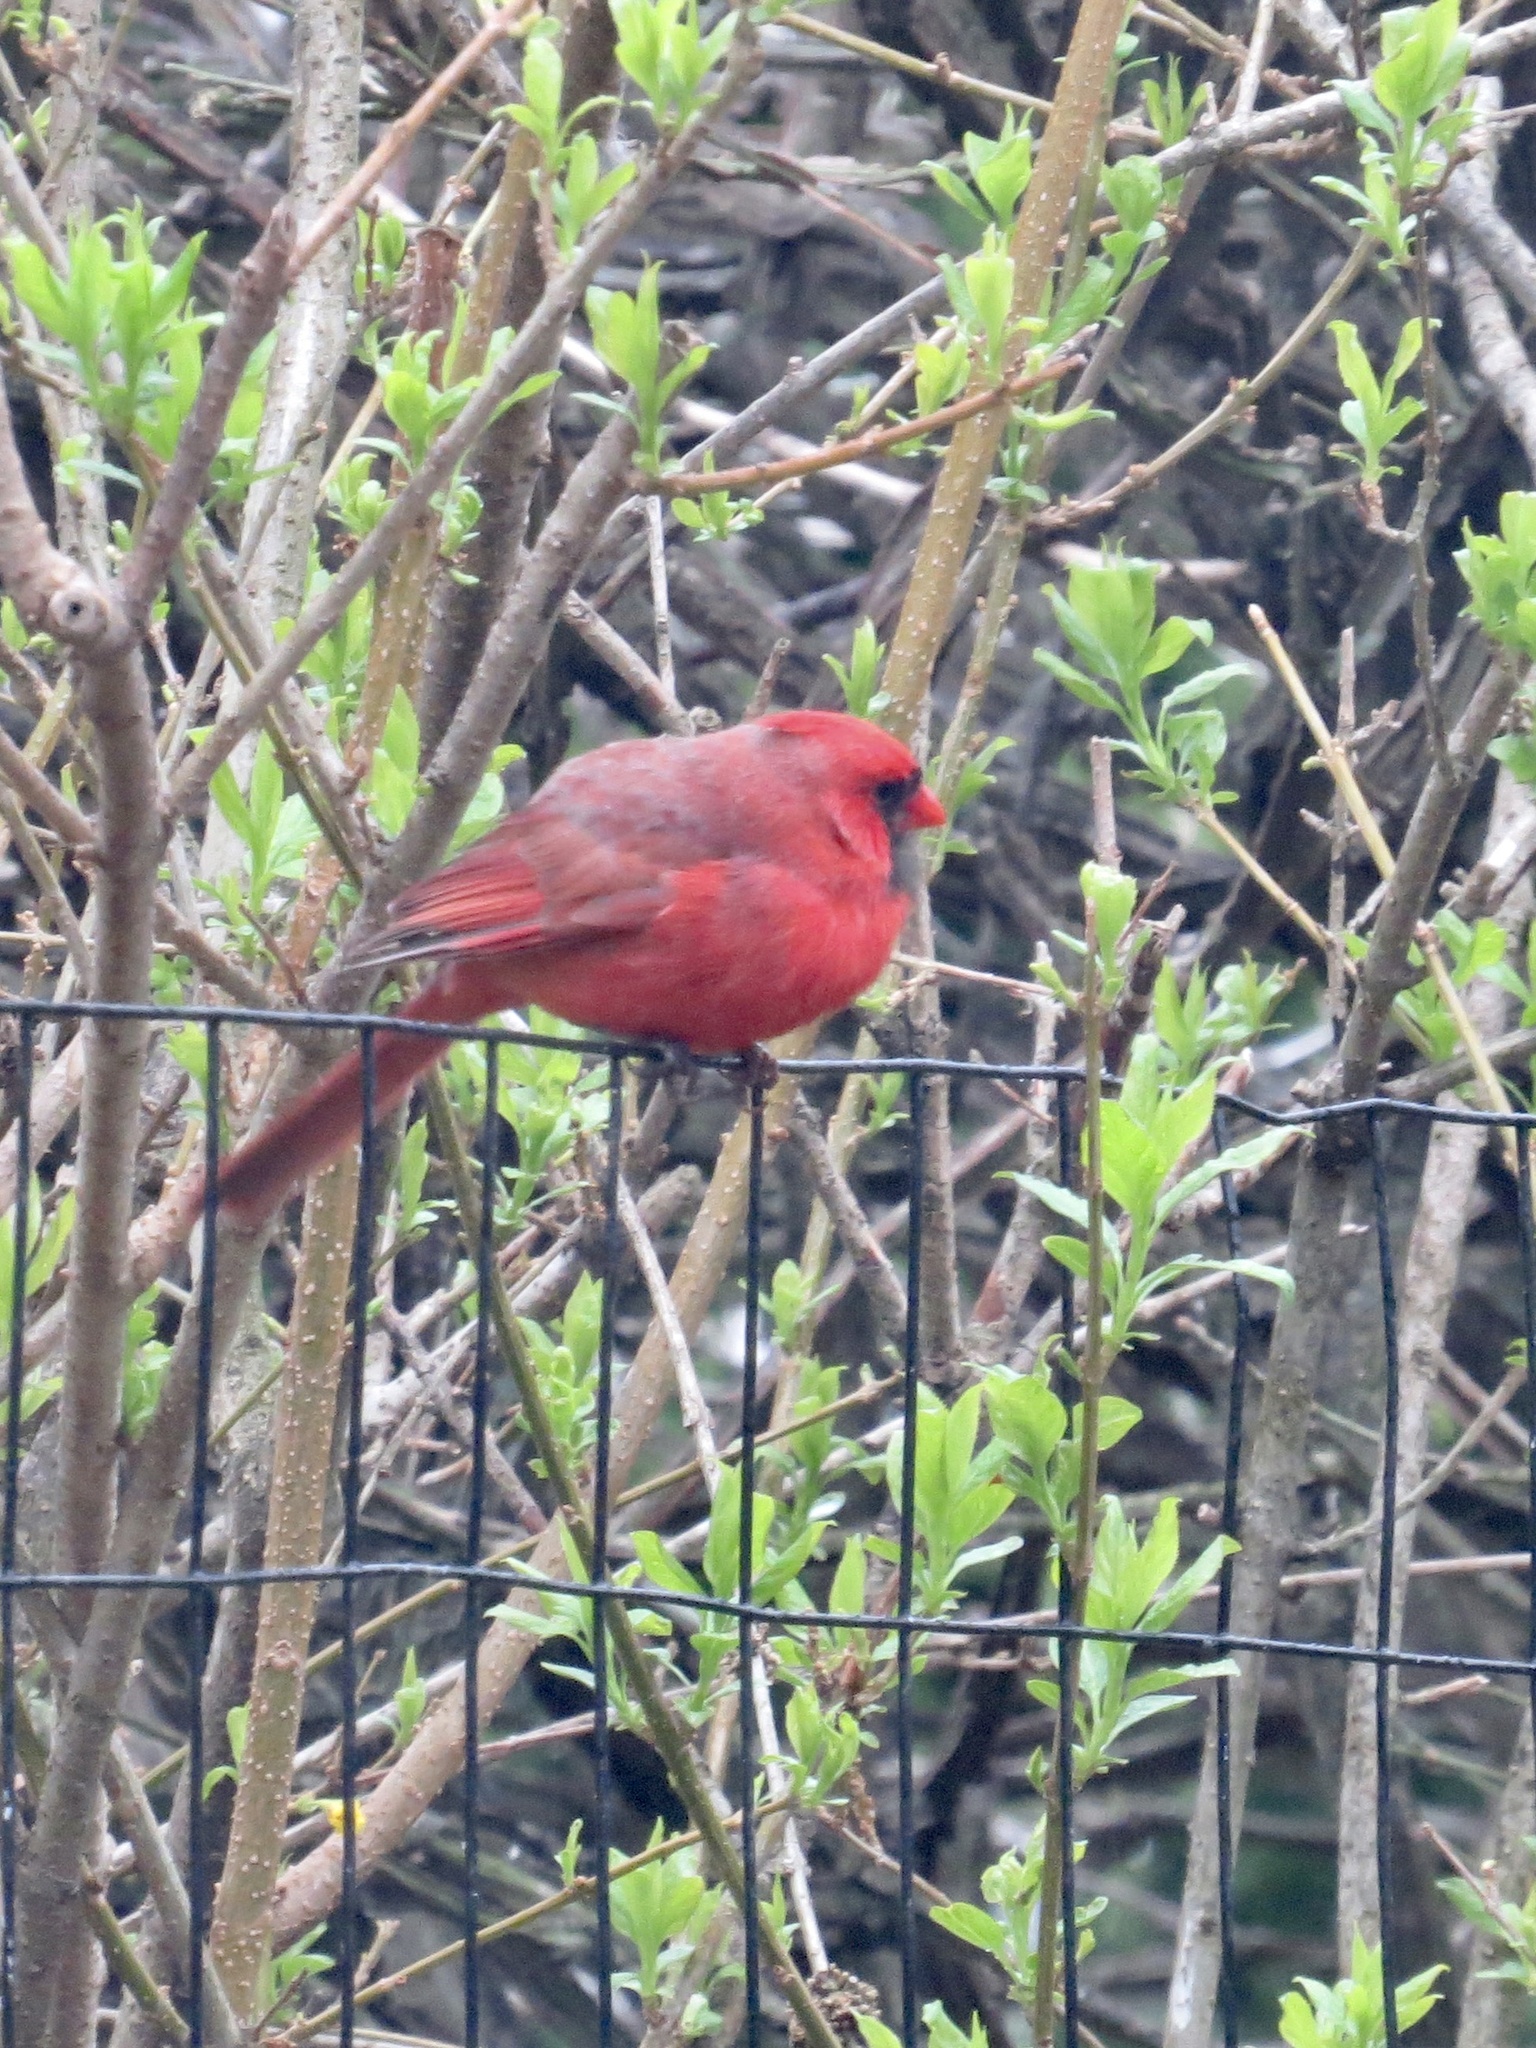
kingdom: Animalia
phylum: Chordata
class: Aves
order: Passeriformes
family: Cardinalidae
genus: Cardinalis
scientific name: Cardinalis cardinalis
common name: Northern cardinal
